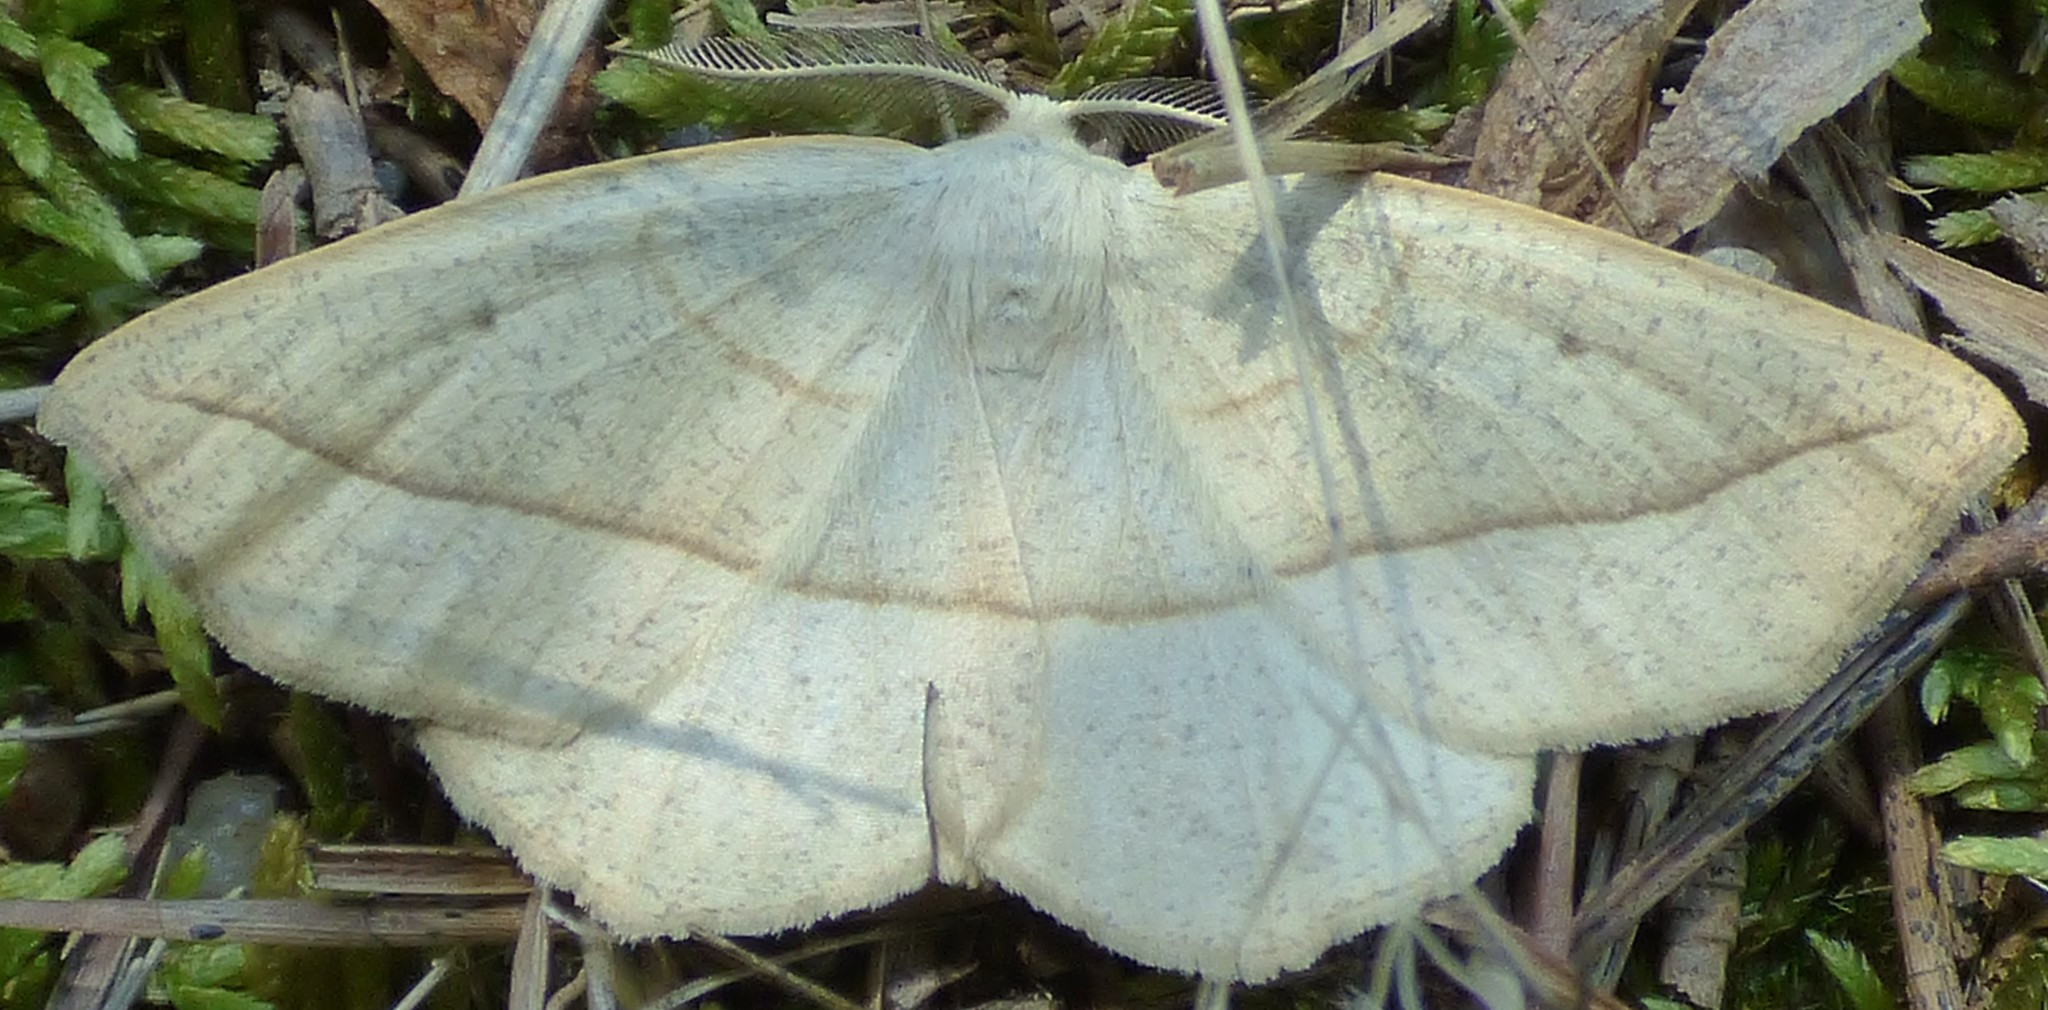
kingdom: Animalia
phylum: Arthropoda
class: Insecta
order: Lepidoptera
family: Geometridae
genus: Eusarca
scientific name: Eusarca confusaria
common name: Confused eusarca
